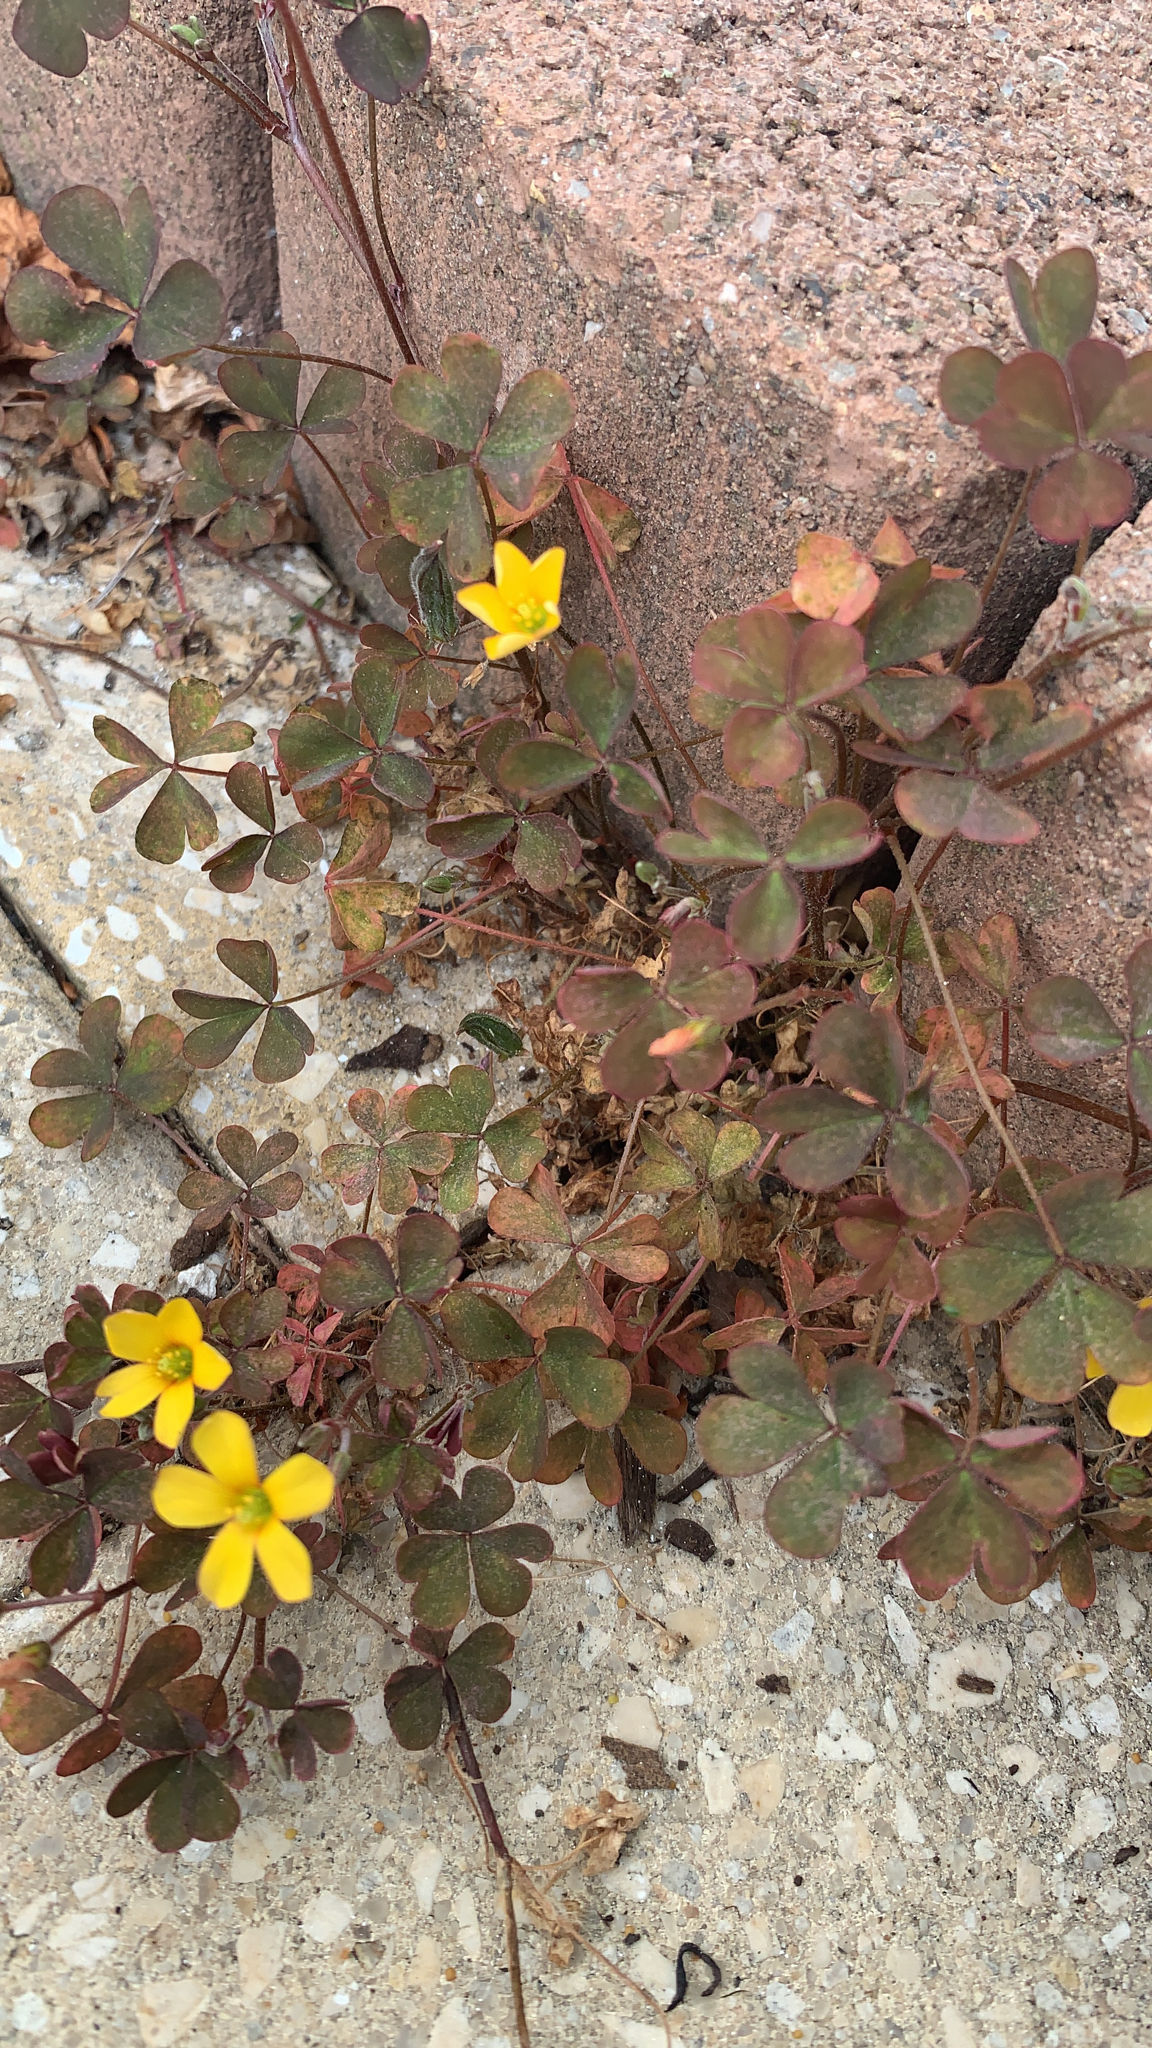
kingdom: Plantae
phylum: Tracheophyta
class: Magnoliopsida
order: Oxalidales
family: Oxalidaceae
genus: Oxalis
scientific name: Oxalis corniculata
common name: Procumbent yellow-sorrel
